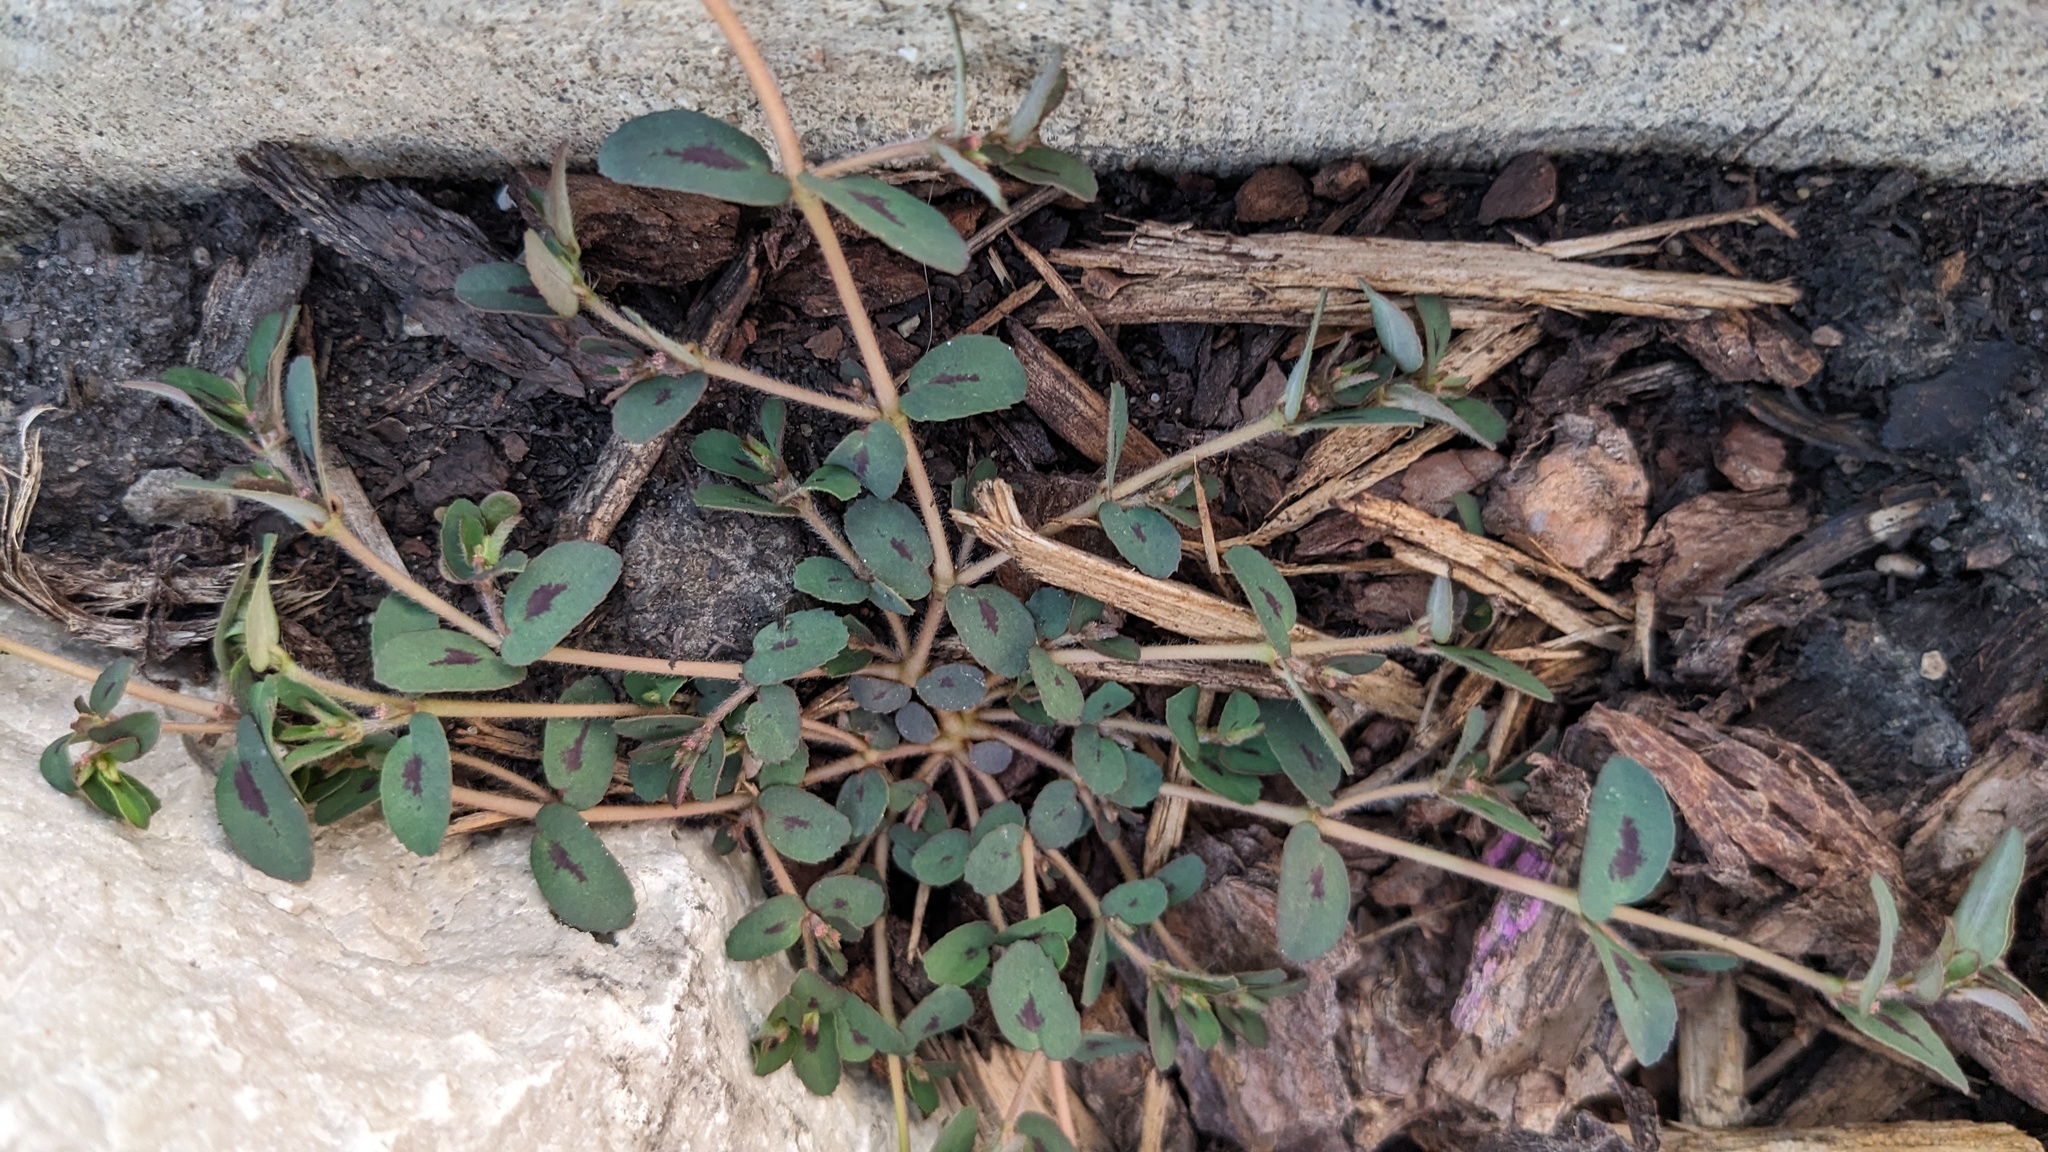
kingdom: Plantae
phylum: Tracheophyta
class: Magnoliopsida
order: Malpighiales
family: Euphorbiaceae
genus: Euphorbia
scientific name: Euphorbia maculata
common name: Spotted spurge
